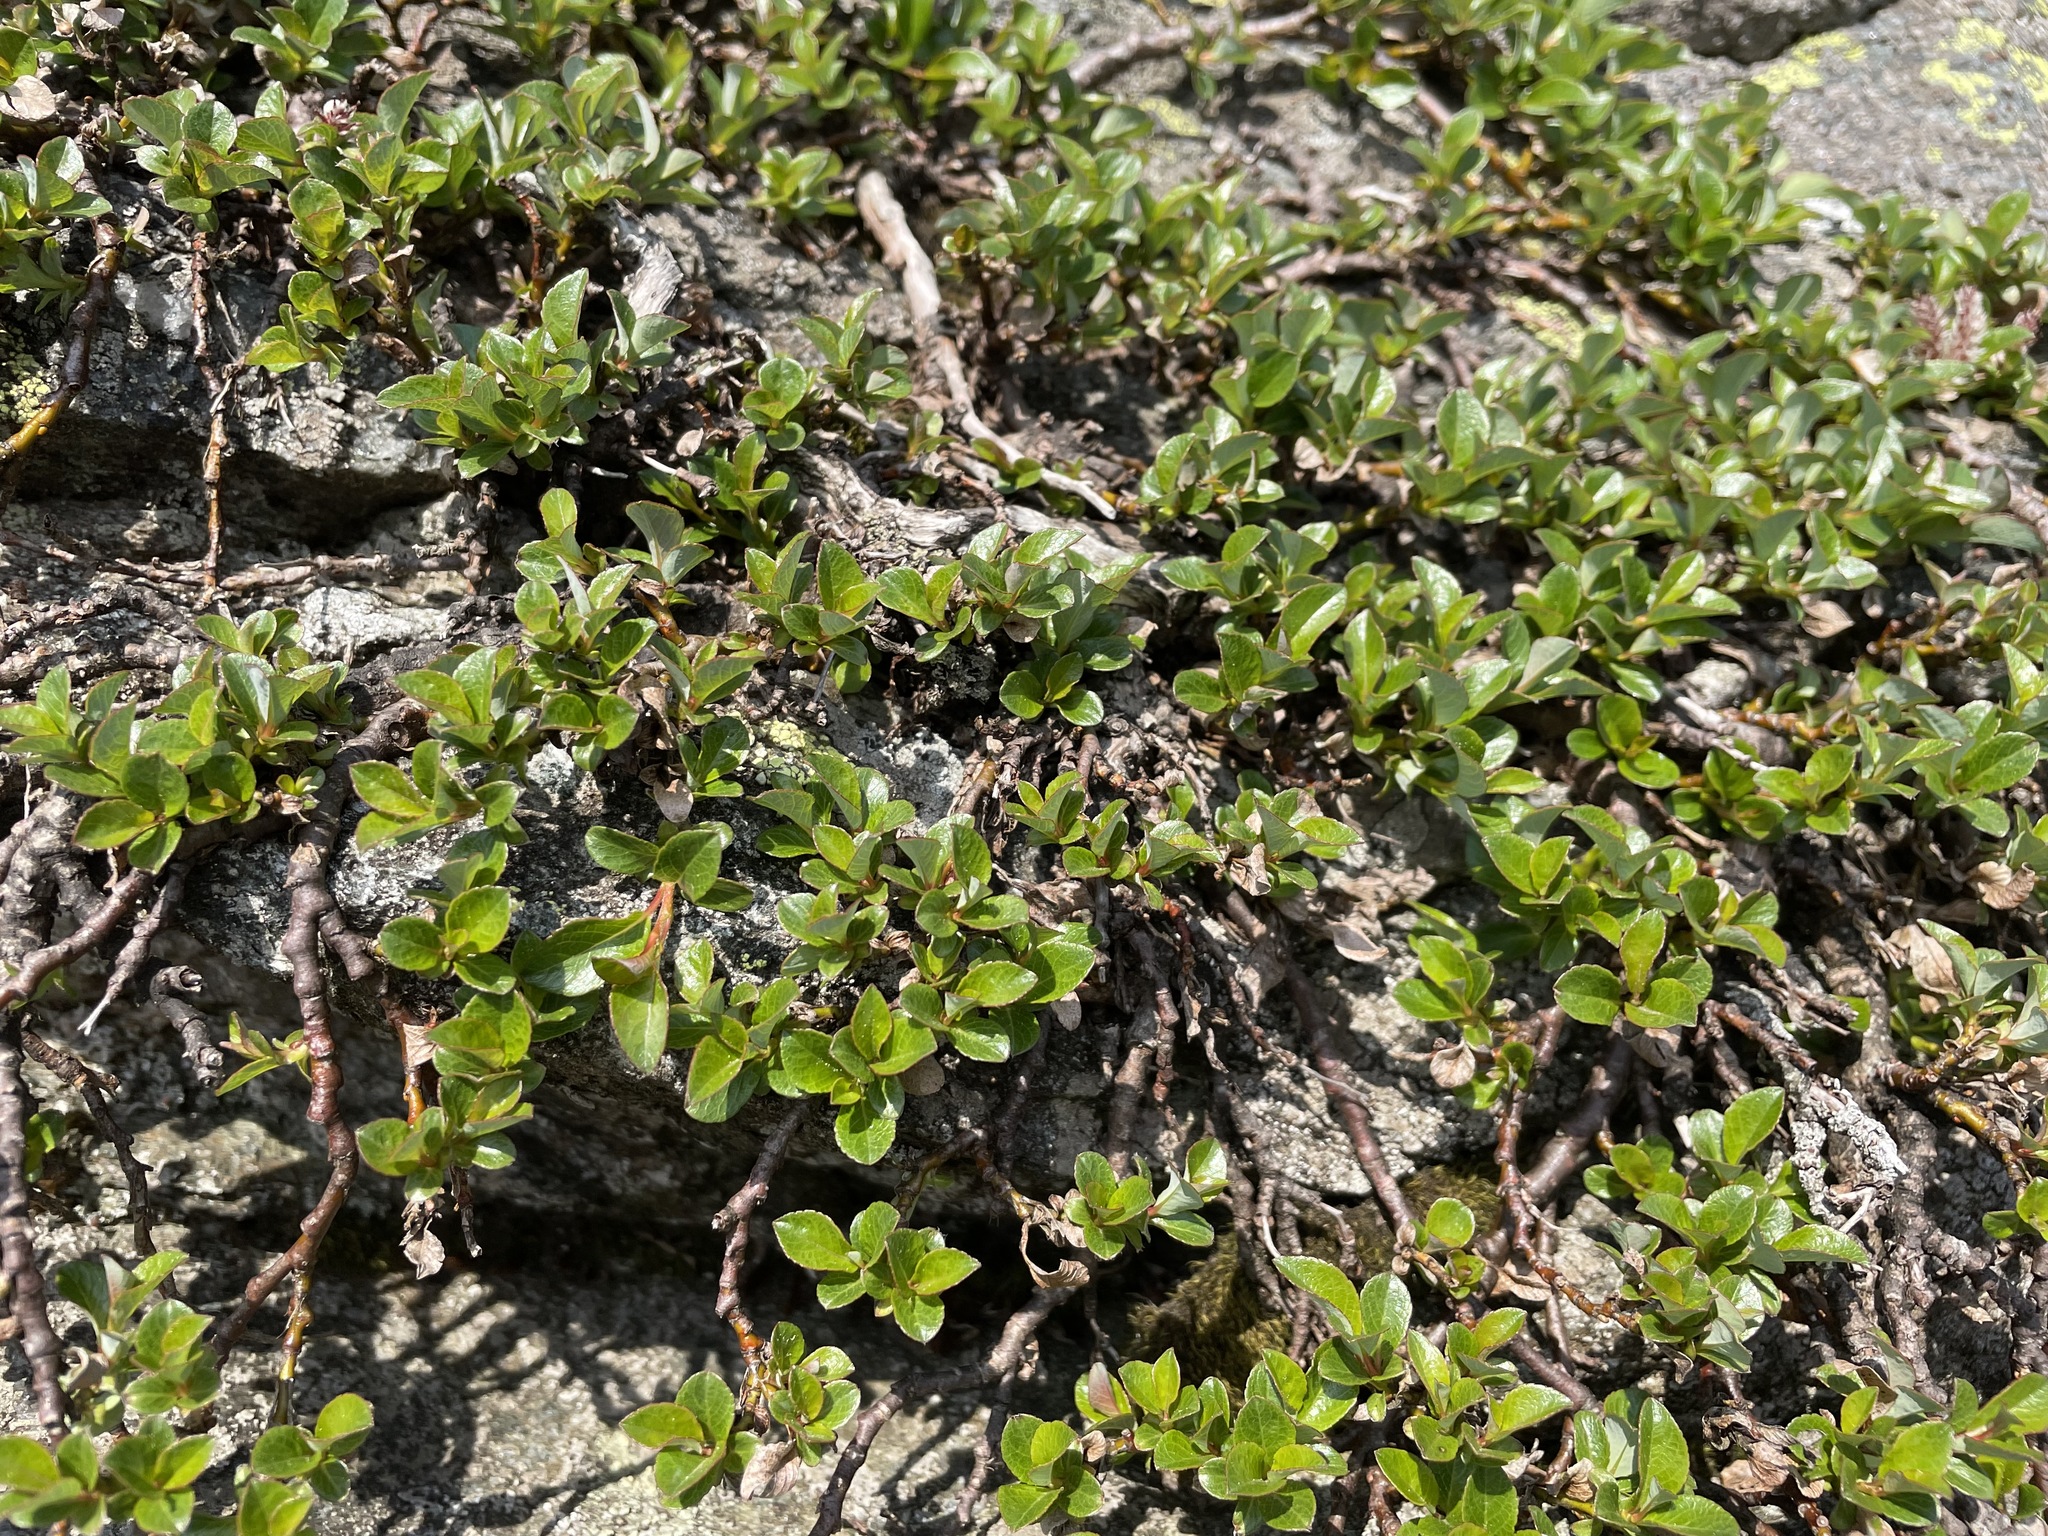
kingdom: Plantae
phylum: Tracheophyta
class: Magnoliopsida
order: Malpighiales
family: Salicaceae
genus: Salix
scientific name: Salix uva-ursi
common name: Bearberry willow
